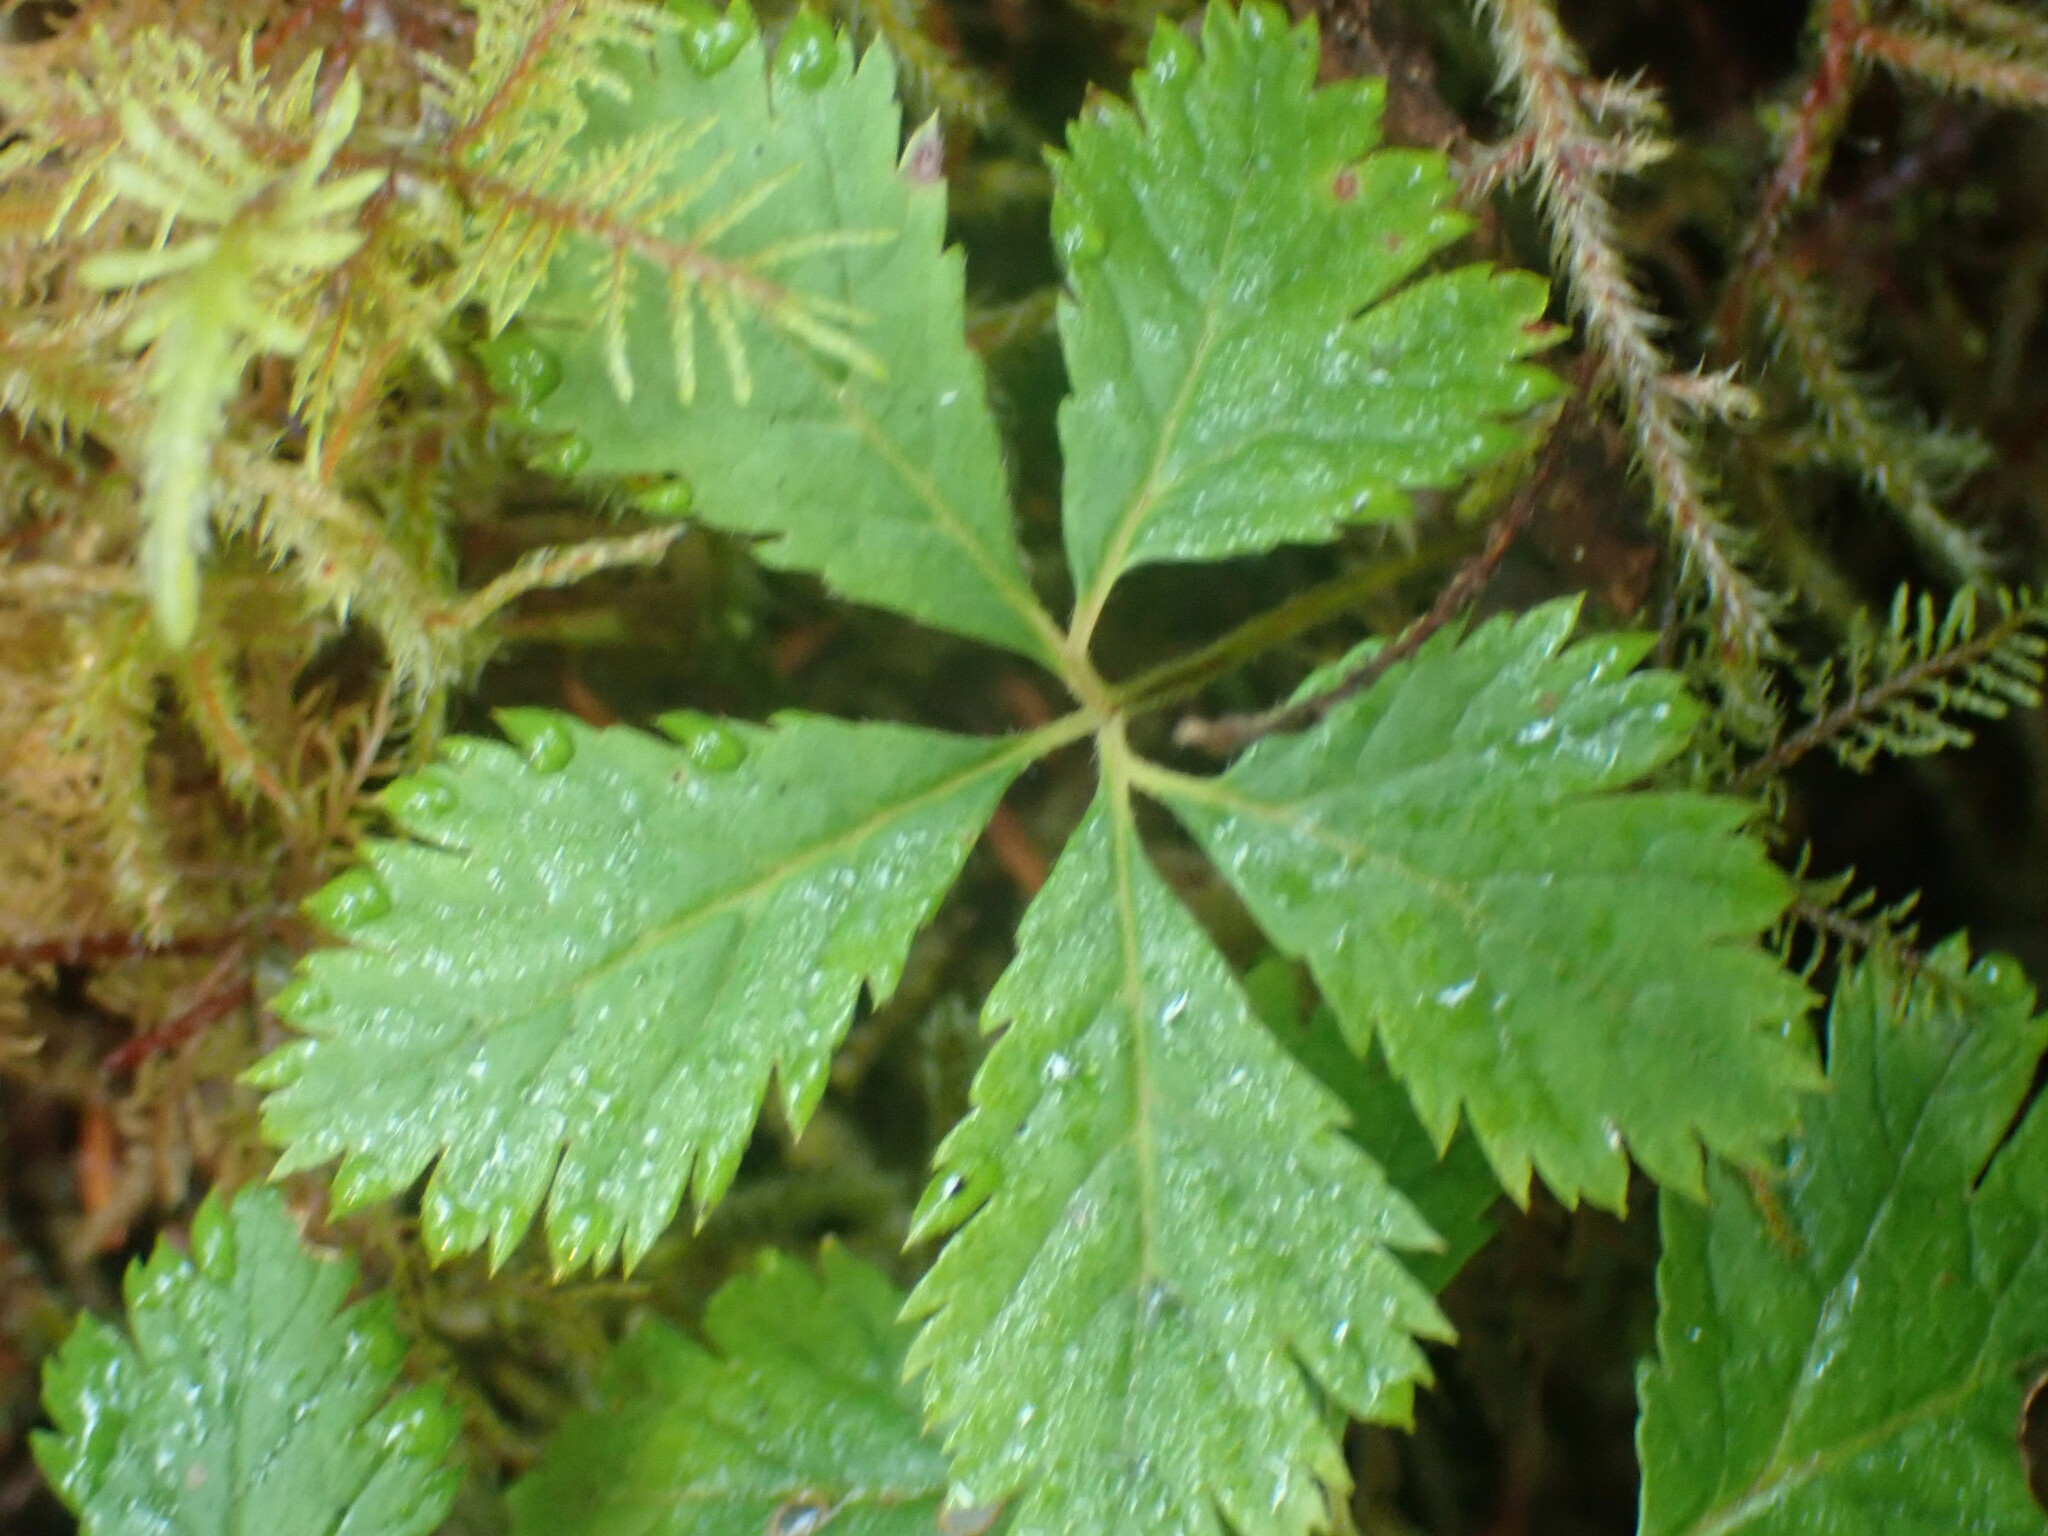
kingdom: Plantae
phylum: Tracheophyta
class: Magnoliopsida
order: Rosales
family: Rosaceae
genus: Rubus
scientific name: Rubus pedatus
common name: Creeping raspberry
